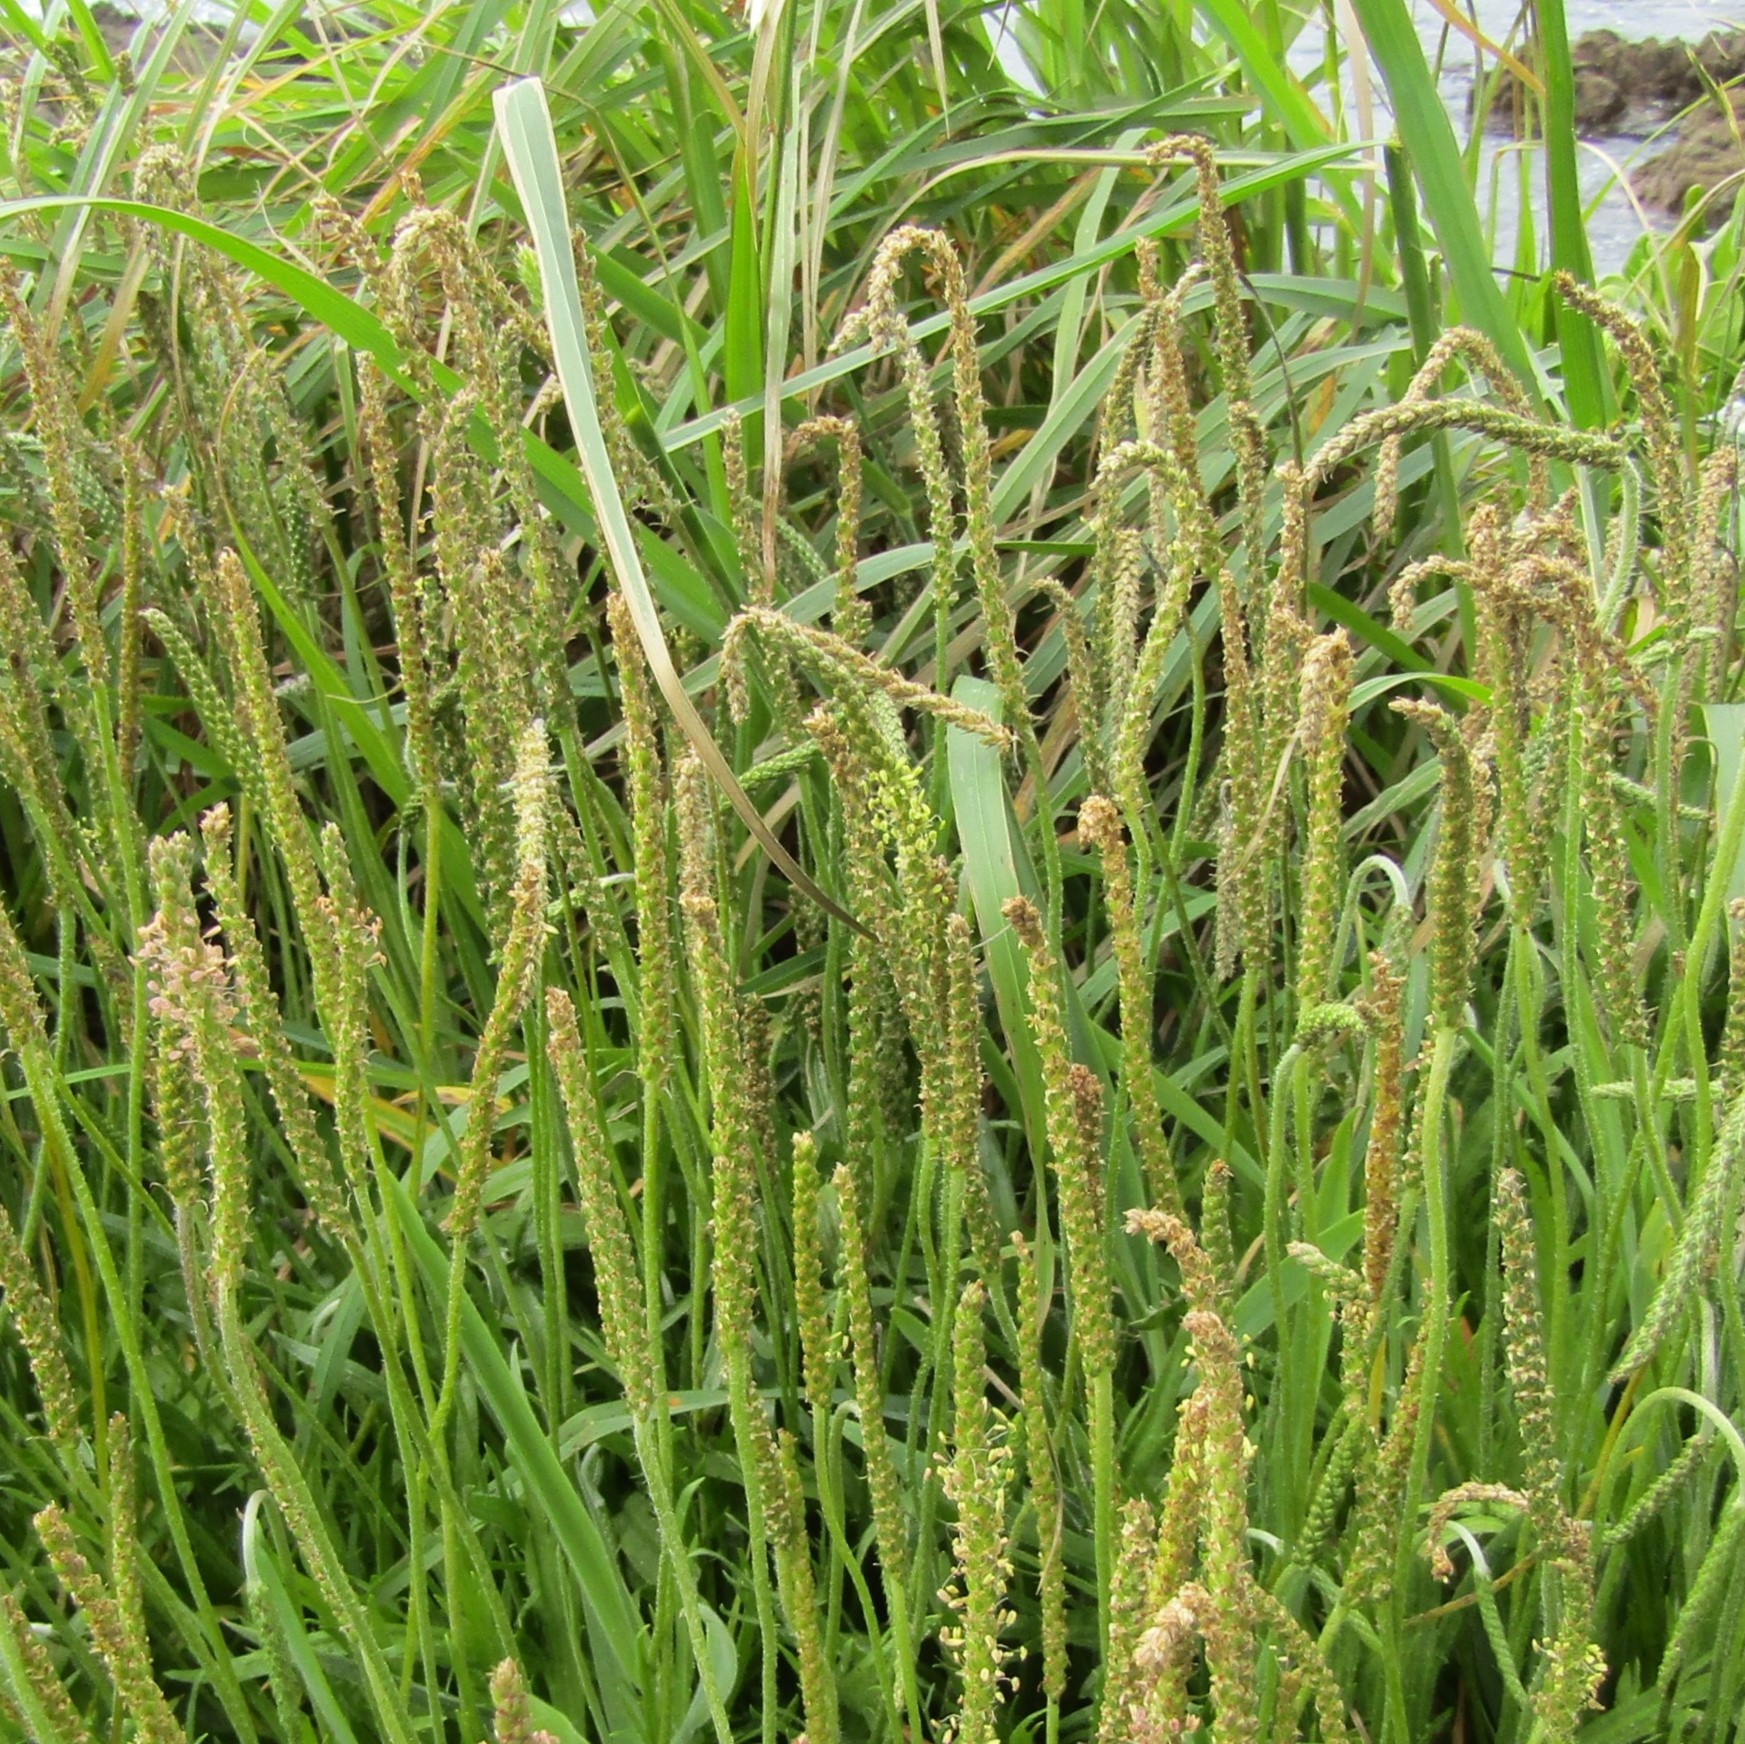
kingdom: Plantae
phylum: Tracheophyta
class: Magnoliopsida
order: Lamiales
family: Plantaginaceae
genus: Plantago
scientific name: Plantago coronopus
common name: Buck's-horn plantain
